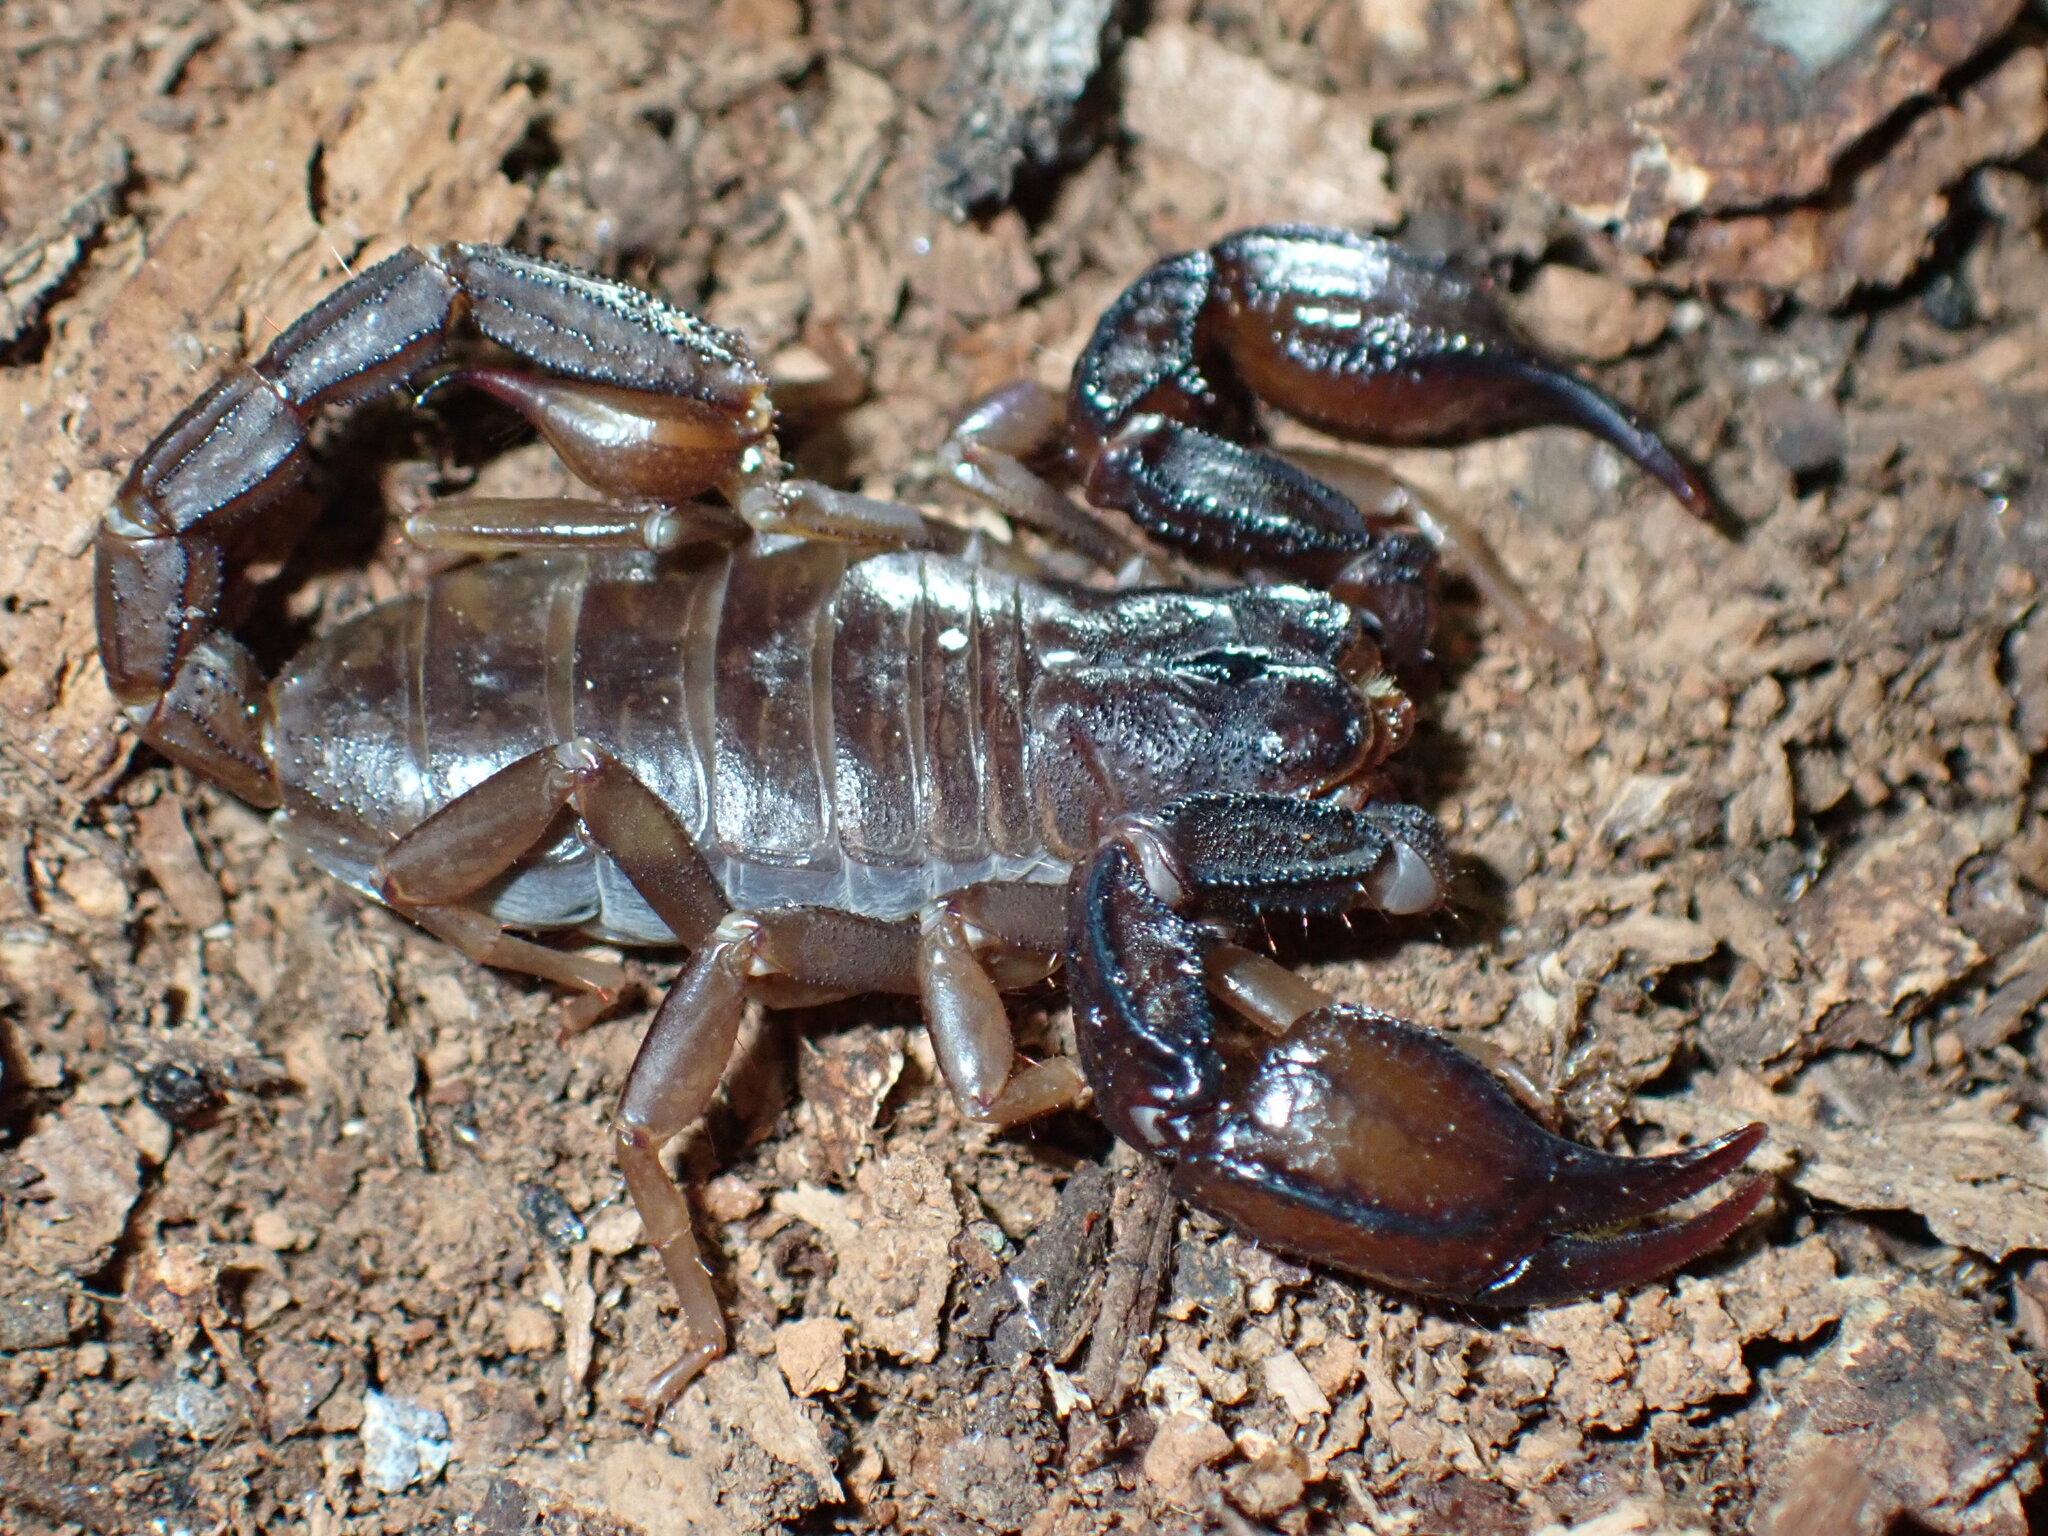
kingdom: Animalia
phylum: Arthropoda
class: Arachnida
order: Scorpiones
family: Chactidae
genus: Uroctonus
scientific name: Uroctonus mordax
